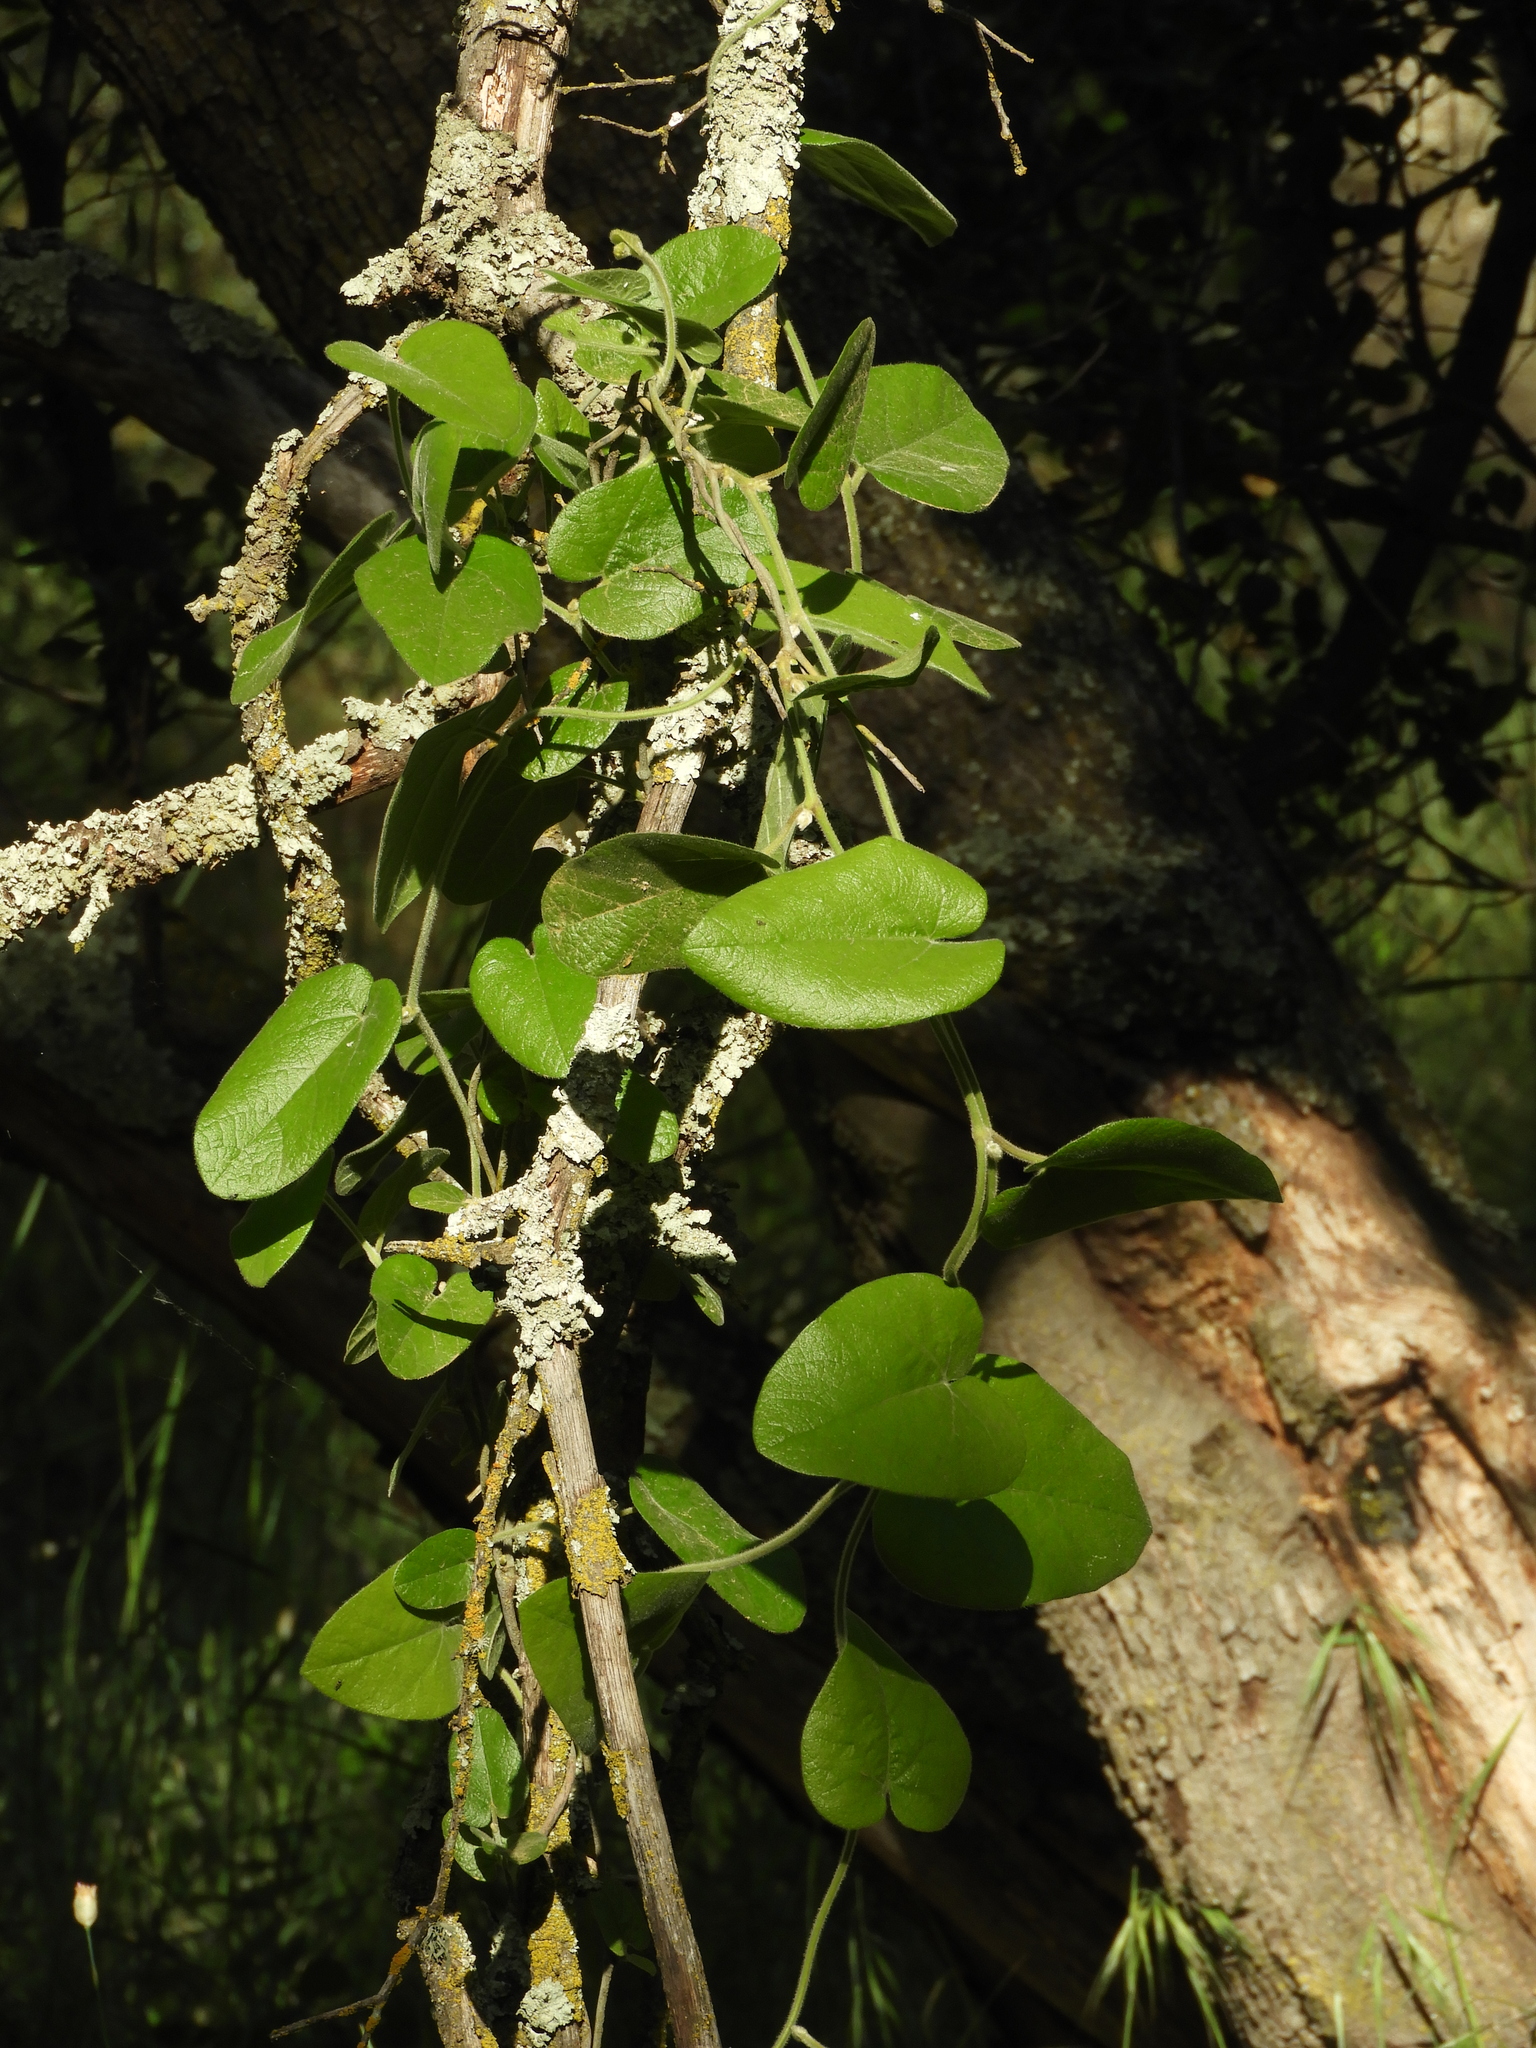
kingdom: Plantae
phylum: Tracheophyta
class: Magnoliopsida
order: Piperales
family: Aristolochiaceae
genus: Isotrema
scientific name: Isotrema californicum
